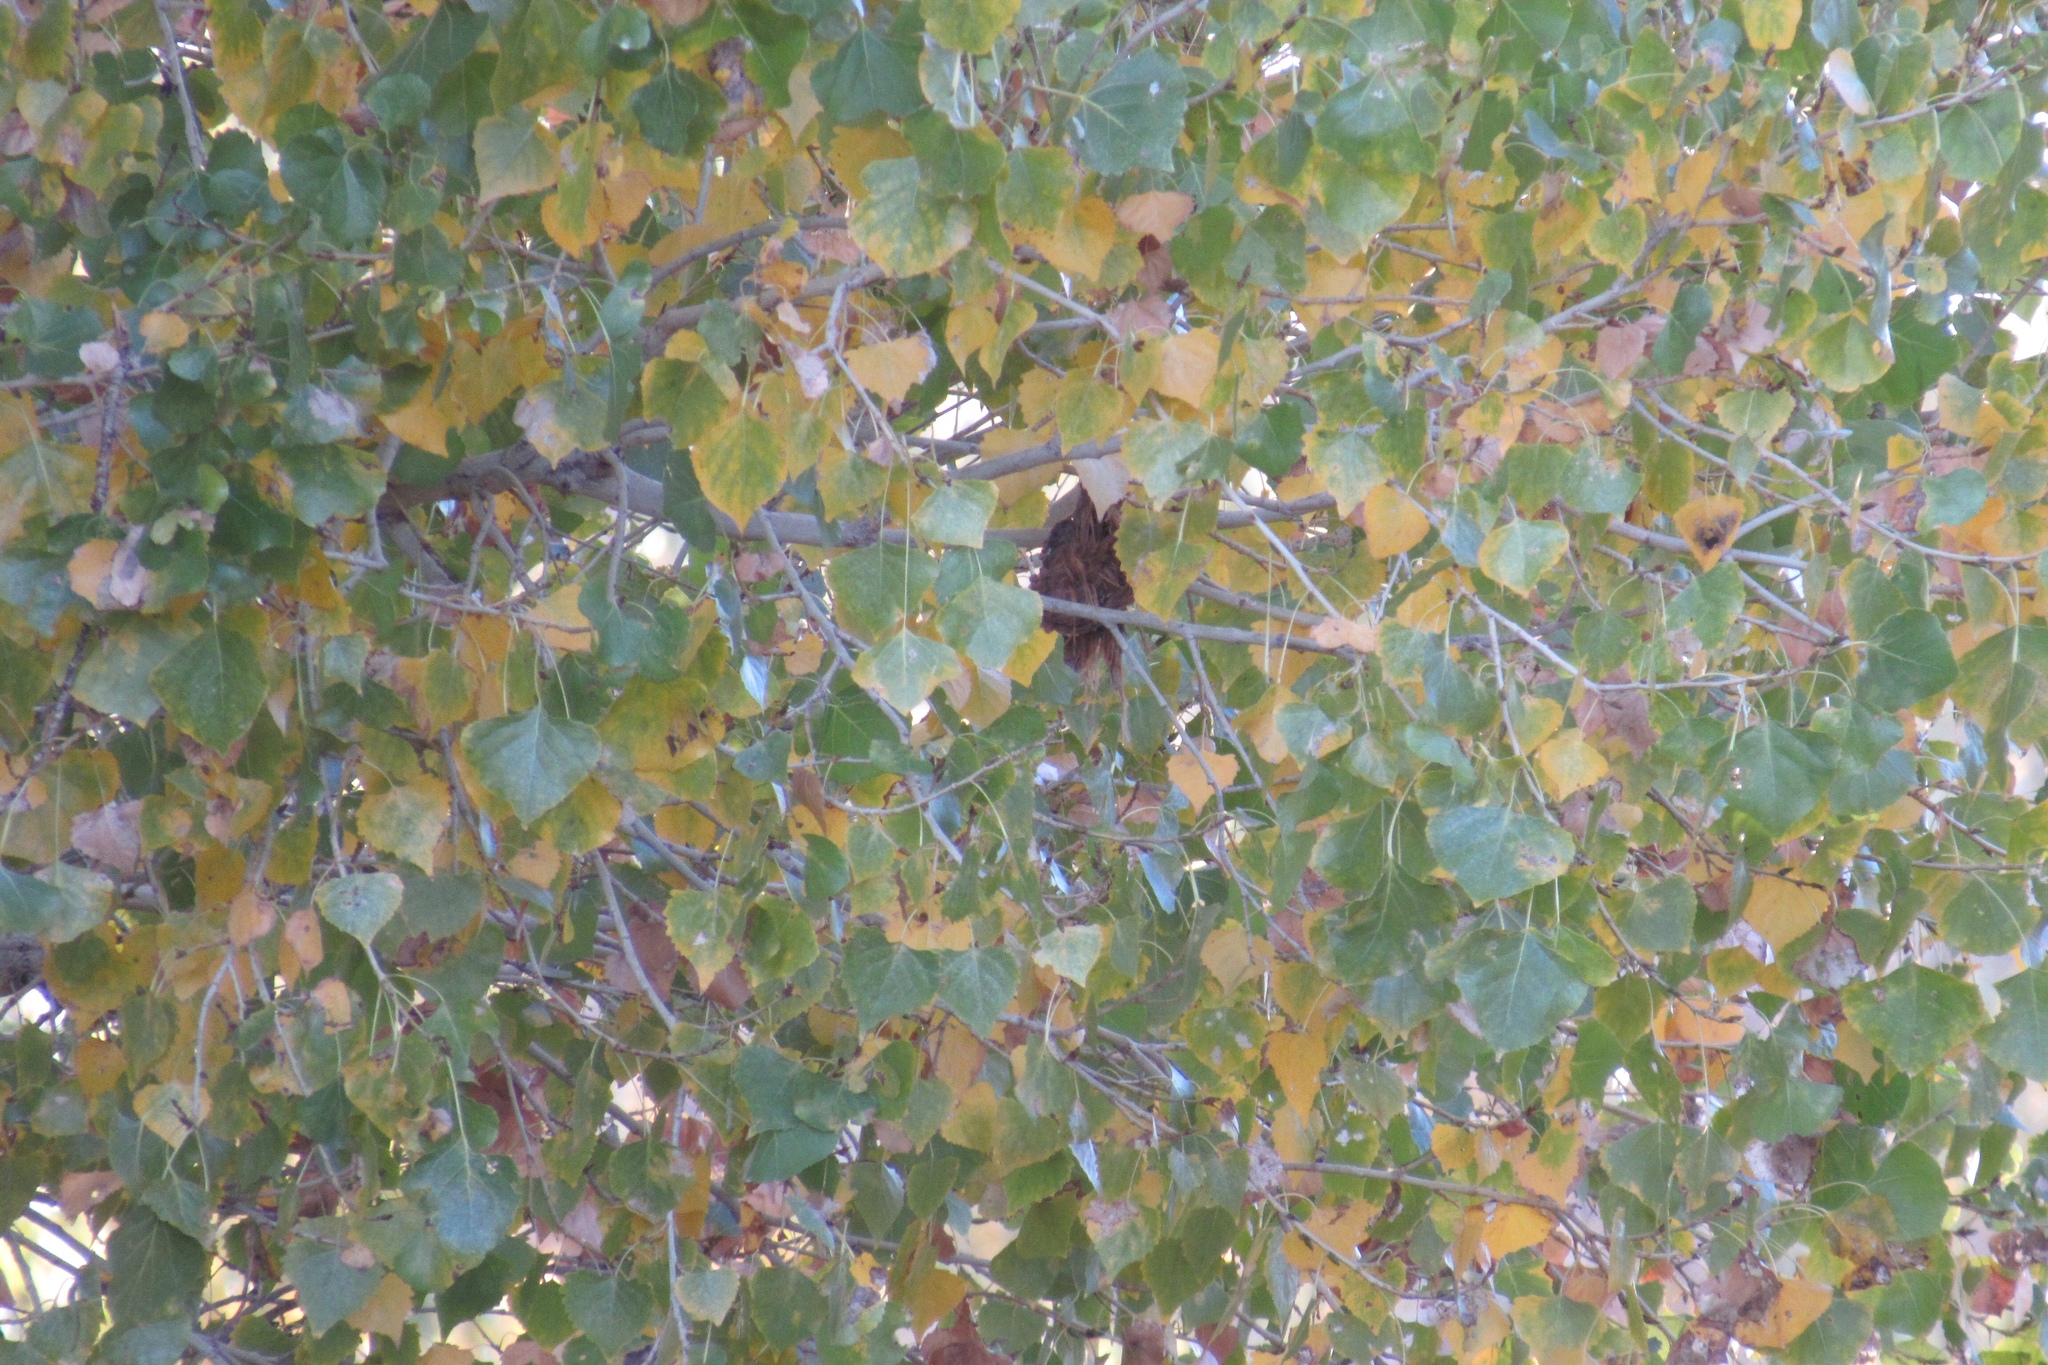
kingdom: Animalia
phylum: Chordata
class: Aves
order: Passeriformes
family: Parulidae
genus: Leiothlypis
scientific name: Leiothlypis celata
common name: Orange-crowned warbler
